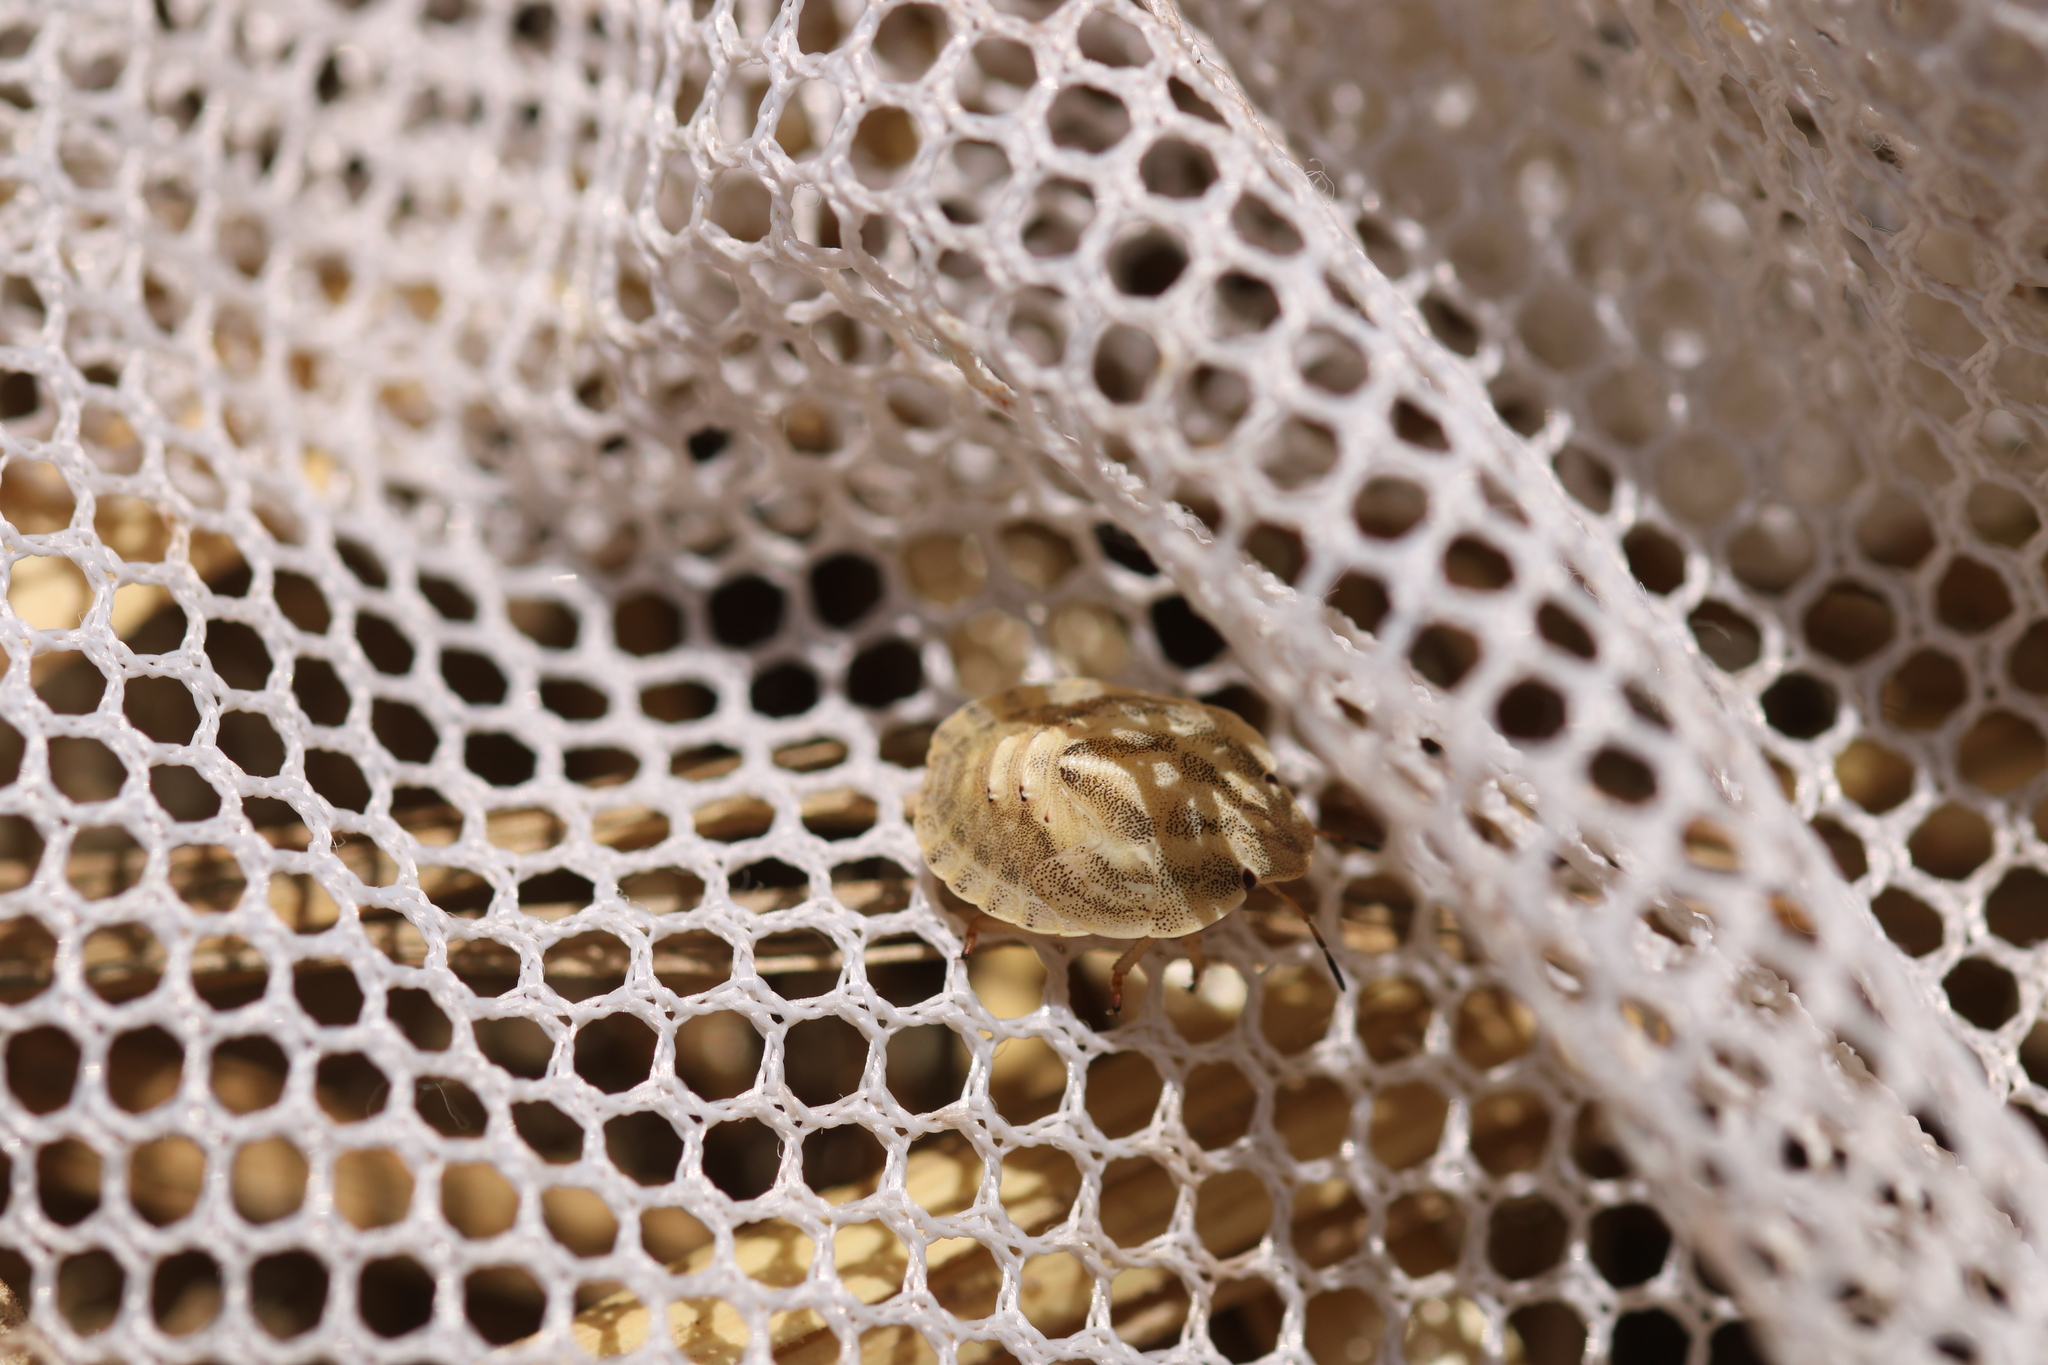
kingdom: Animalia
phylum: Arthropoda
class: Insecta
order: Hemiptera
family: Scutelleridae
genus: Eurygaster
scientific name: Eurygaster austriaca
